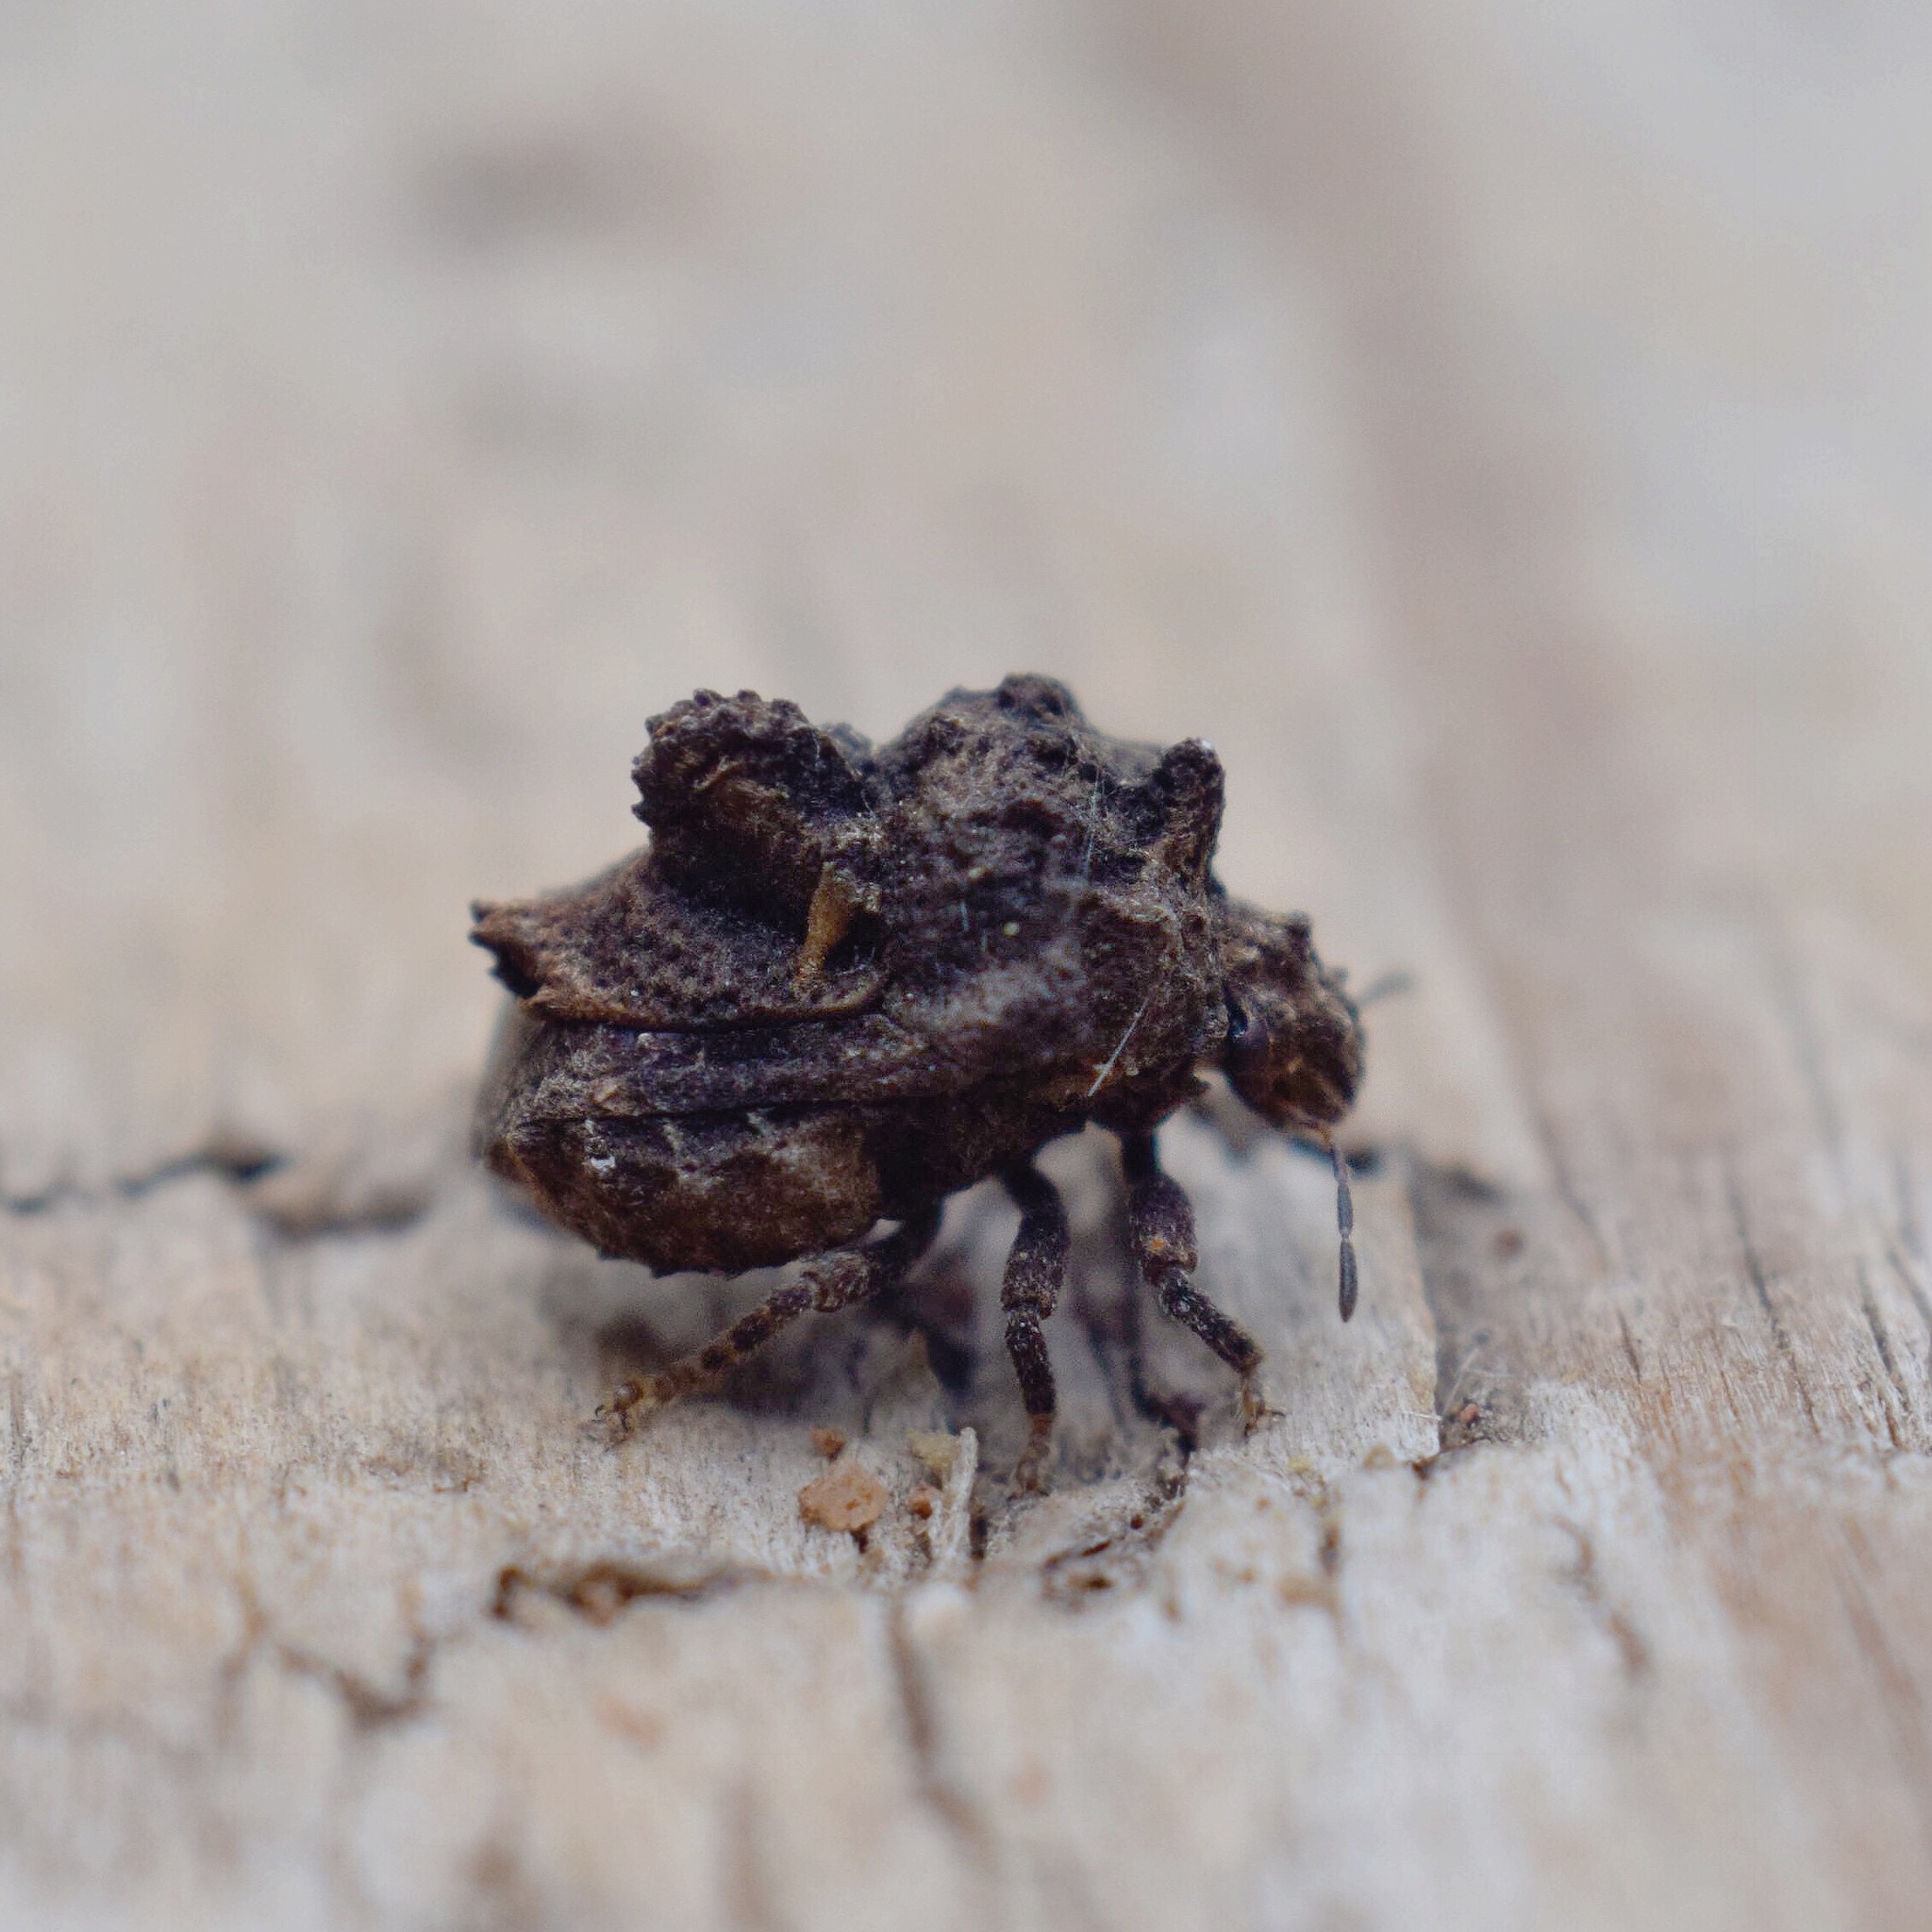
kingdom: Animalia
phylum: Arthropoda
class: Insecta
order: Hemiptera
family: Plataspidae
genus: Brachycerocoris
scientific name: Brachycerocoris
